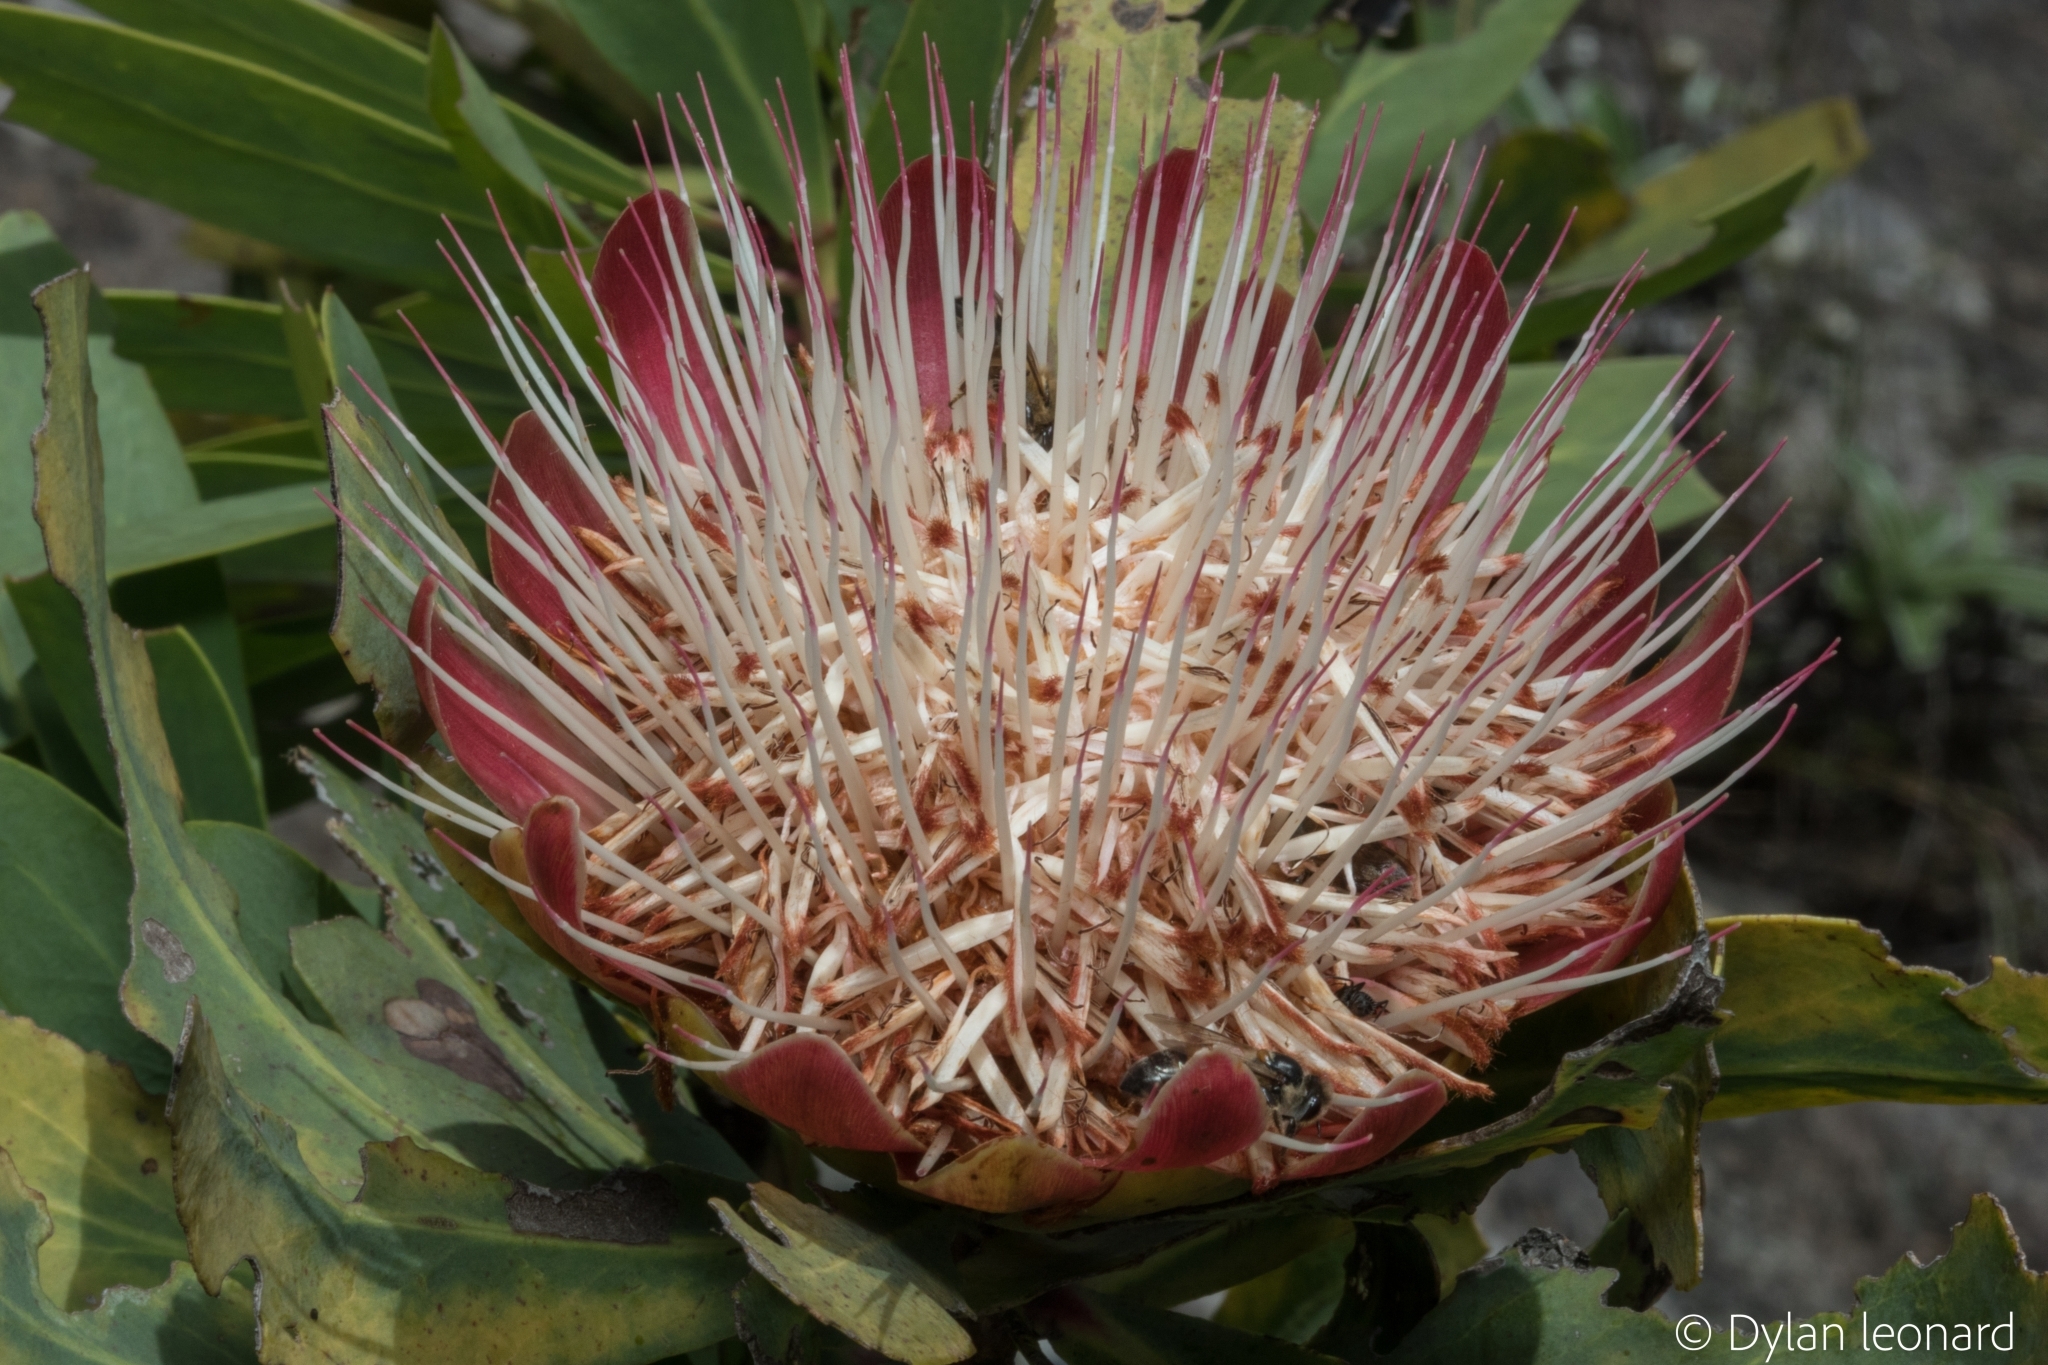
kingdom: Plantae
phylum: Tracheophyta
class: Magnoliopsida
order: Proteales
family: Proteaceae
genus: Protea
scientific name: Protea caffra
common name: Common sugarbush
